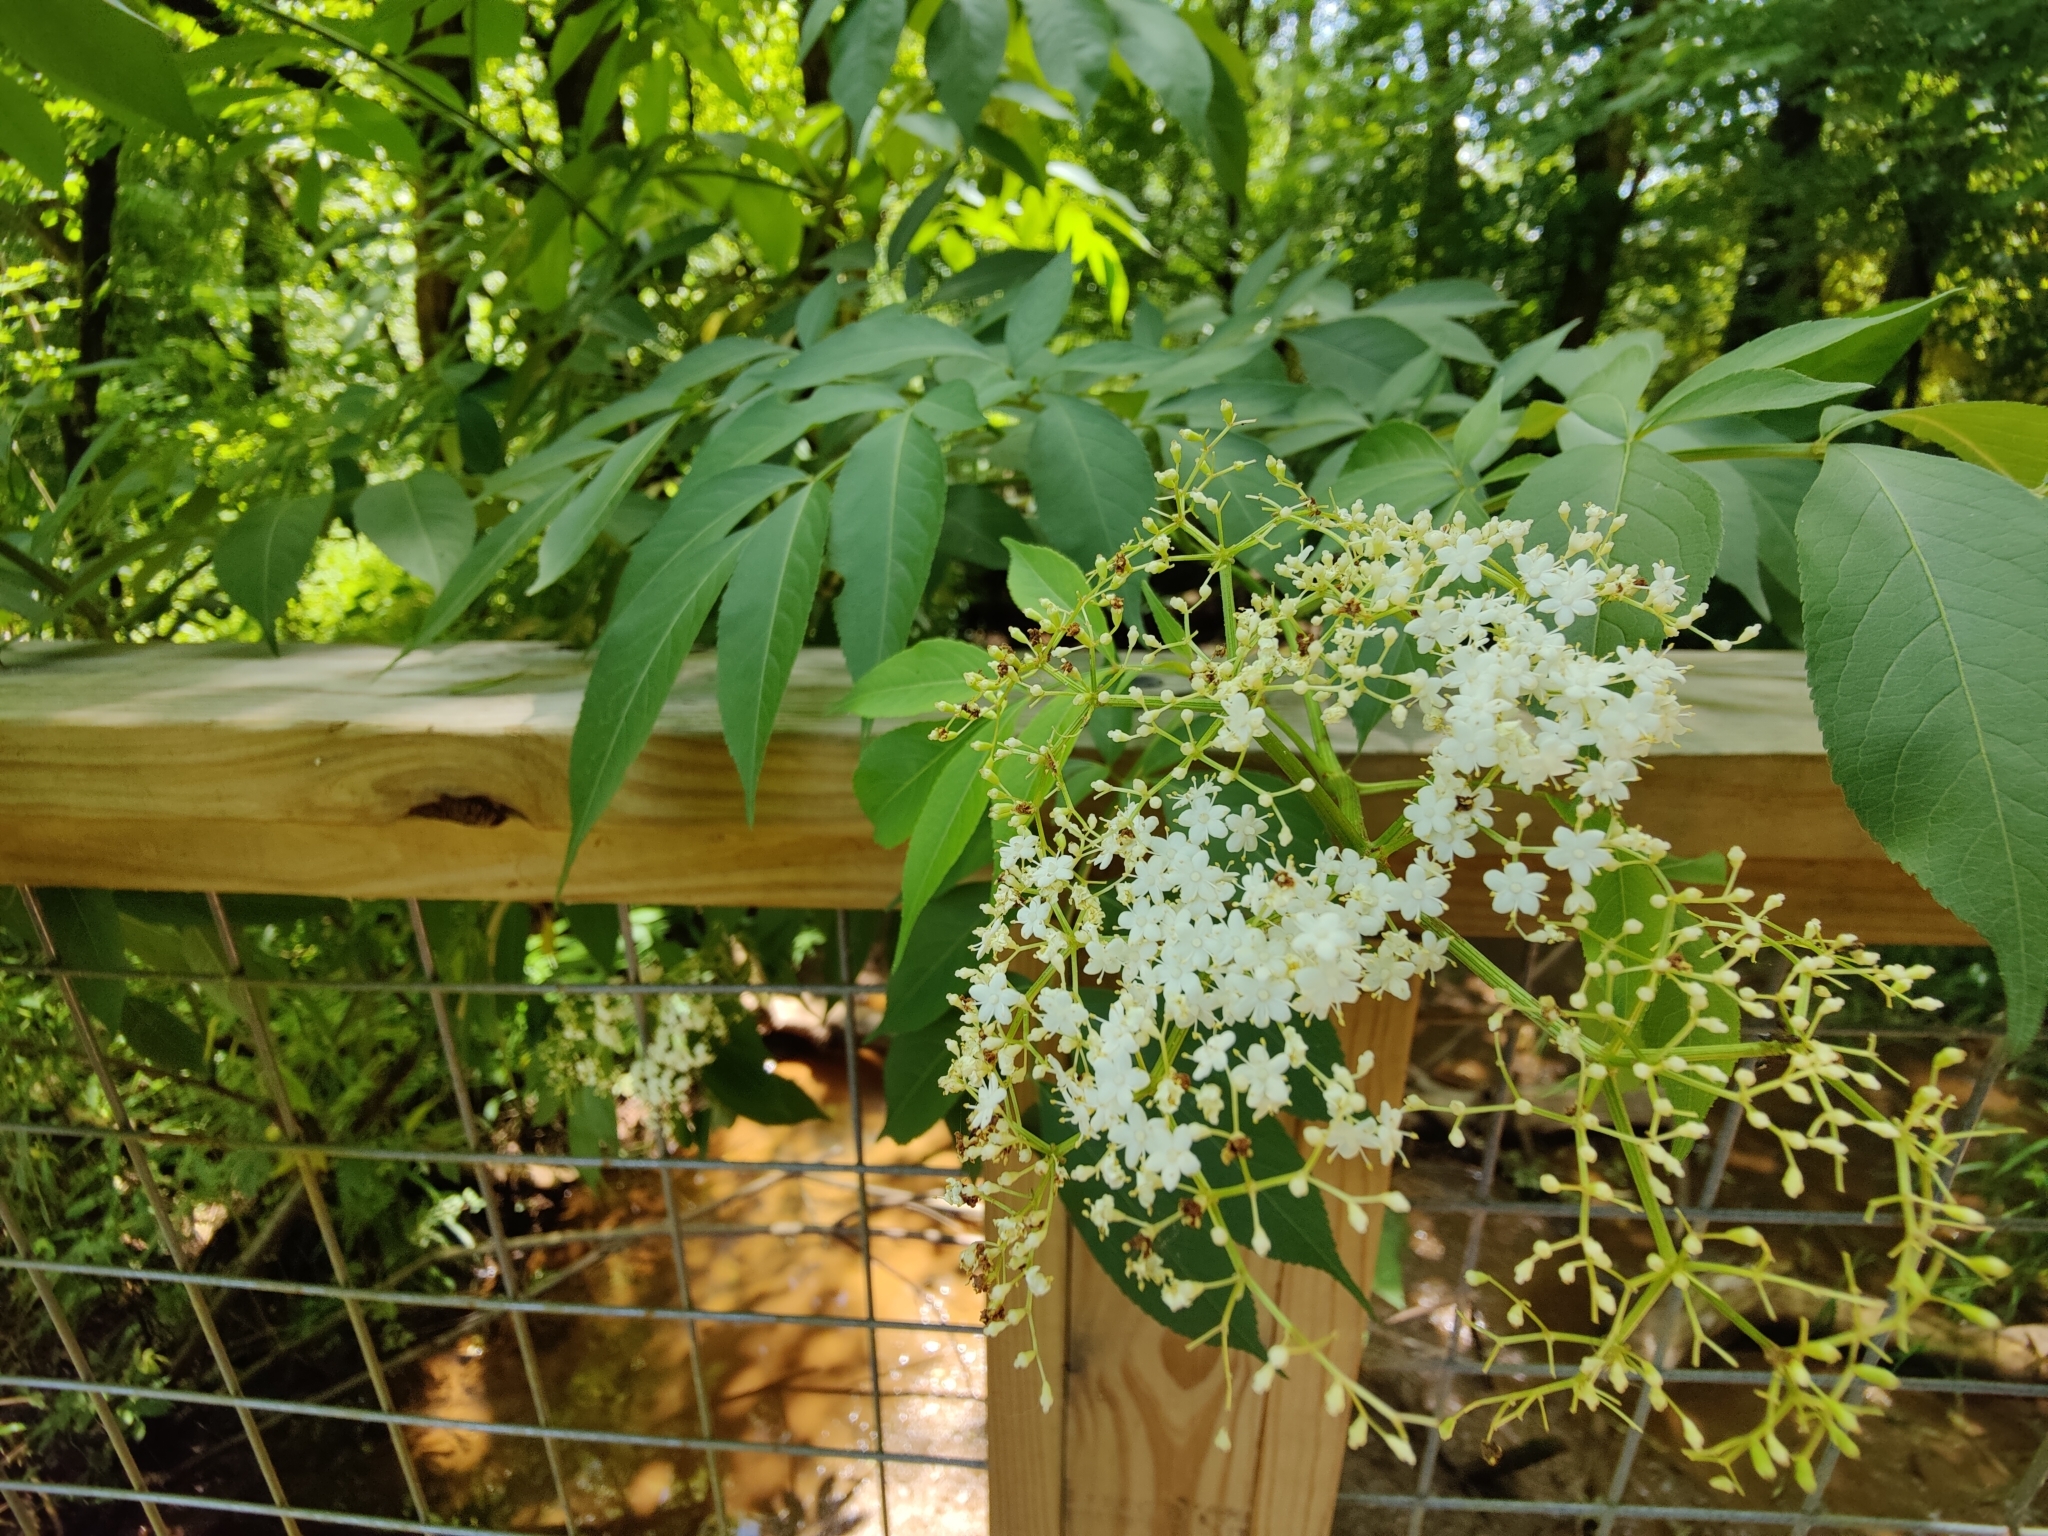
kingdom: Plantae
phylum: Tracheophyta
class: Magnoliopsida
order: Dipsacales
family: Viburnaceae
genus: Sambucus
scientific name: Sambucus canadensis
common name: American elder
